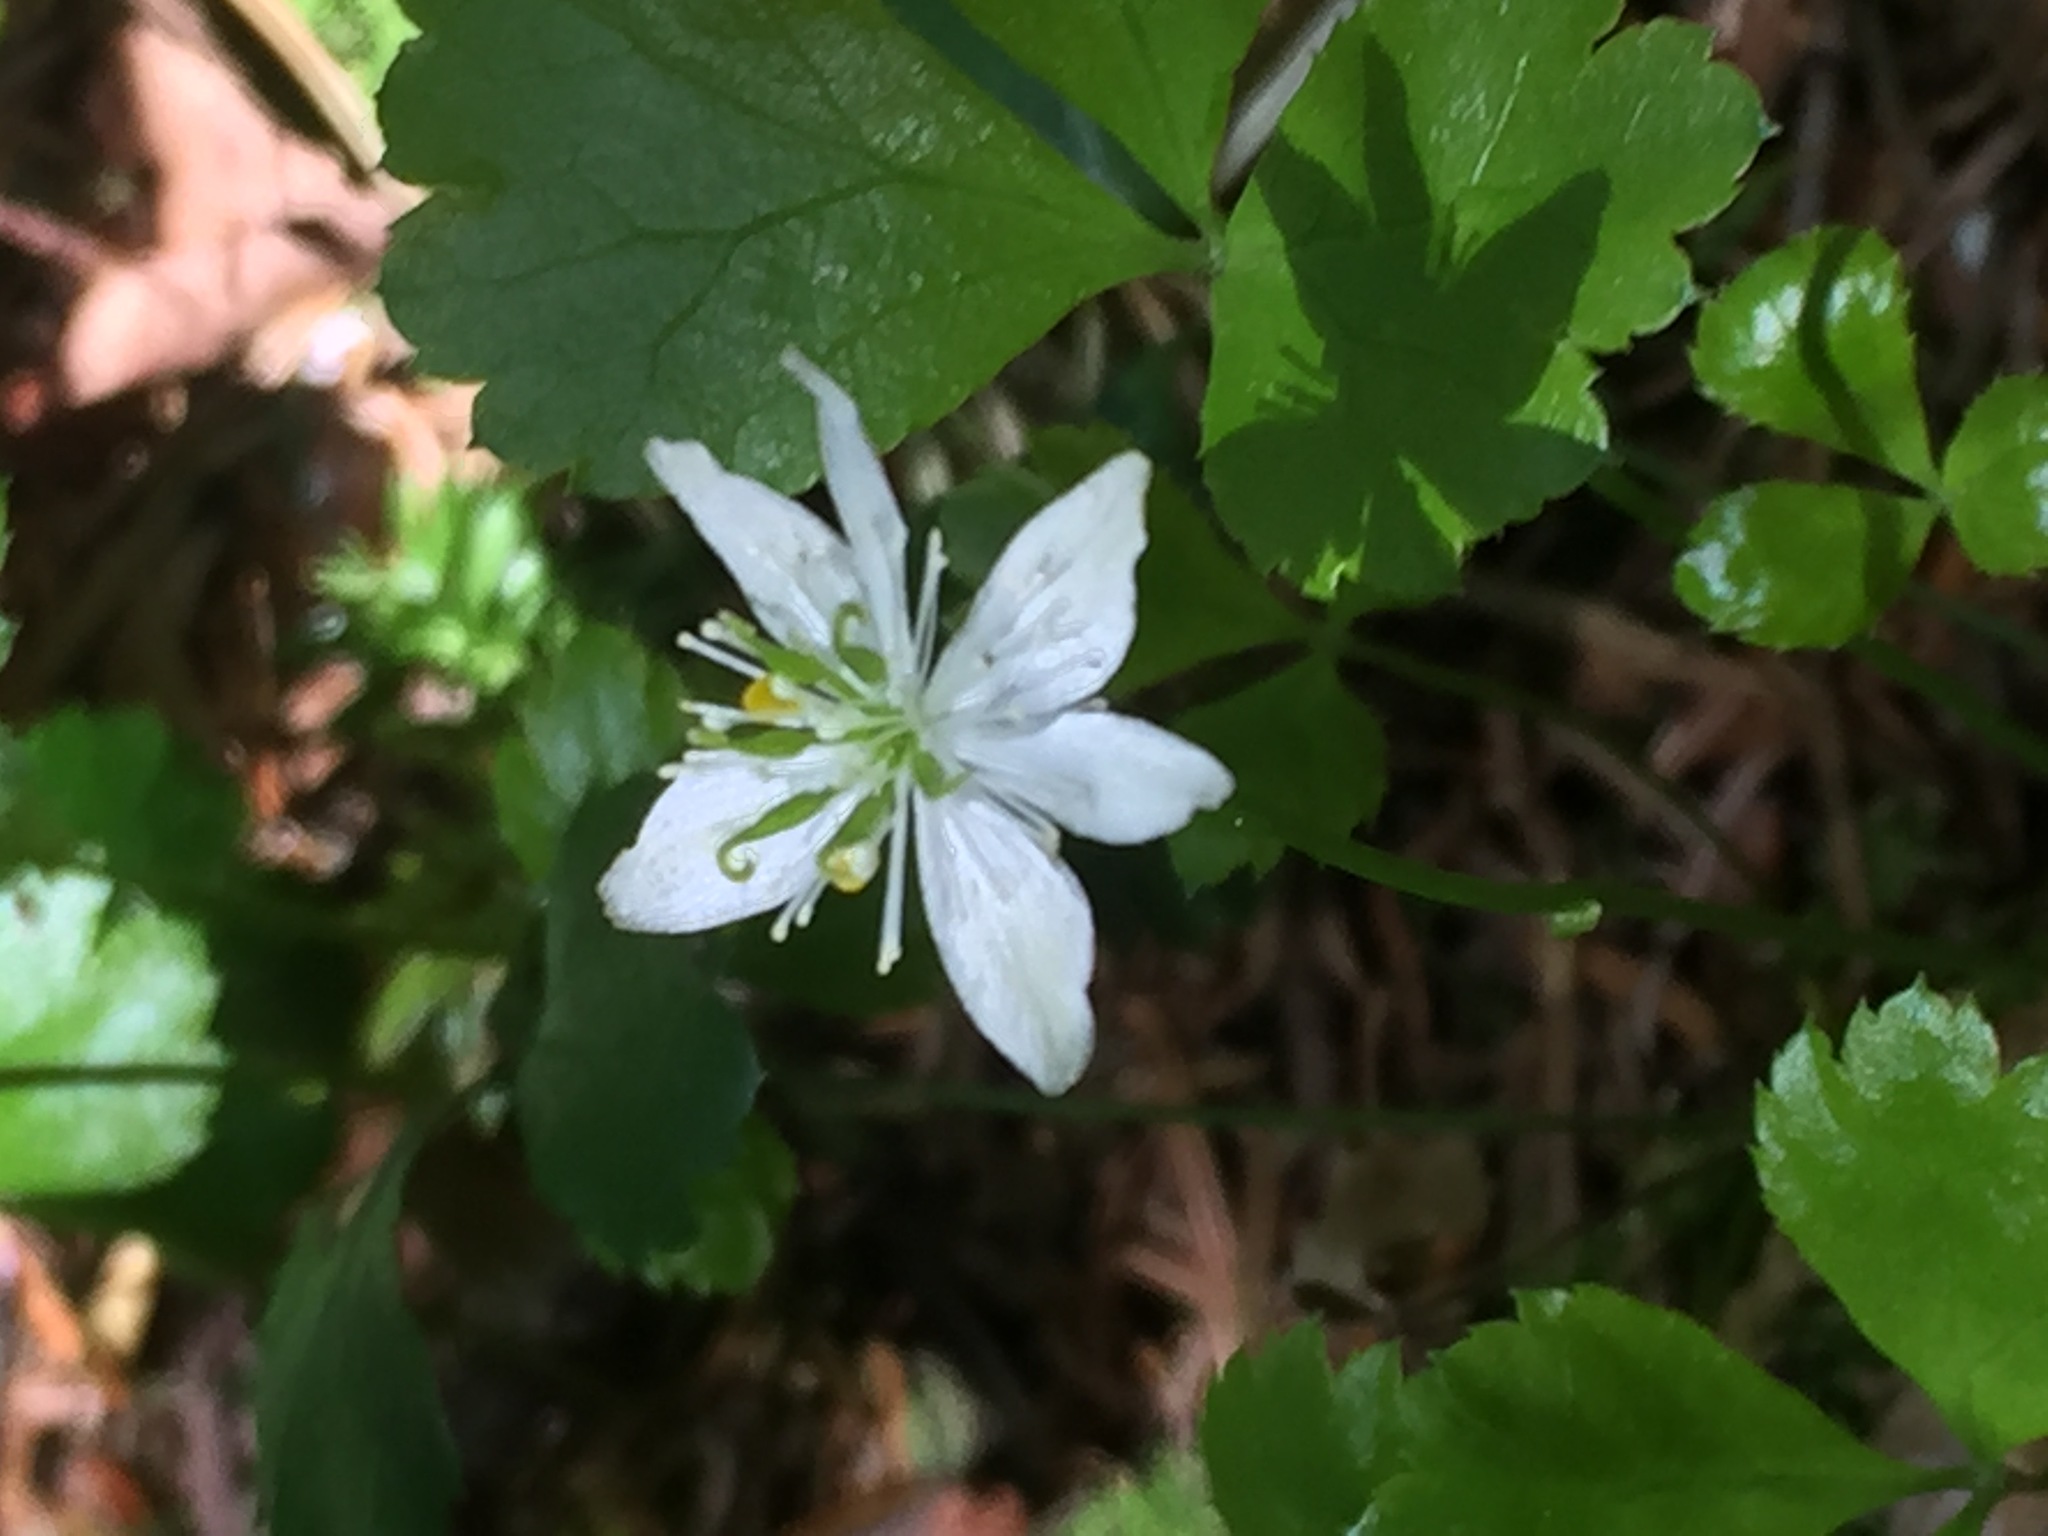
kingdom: Plantae
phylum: Tracheophyta
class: Magnoliopsida
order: Ranunculales
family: Ranunculaceae
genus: Coptis
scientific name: Coptis trifolia
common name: Canker-root
